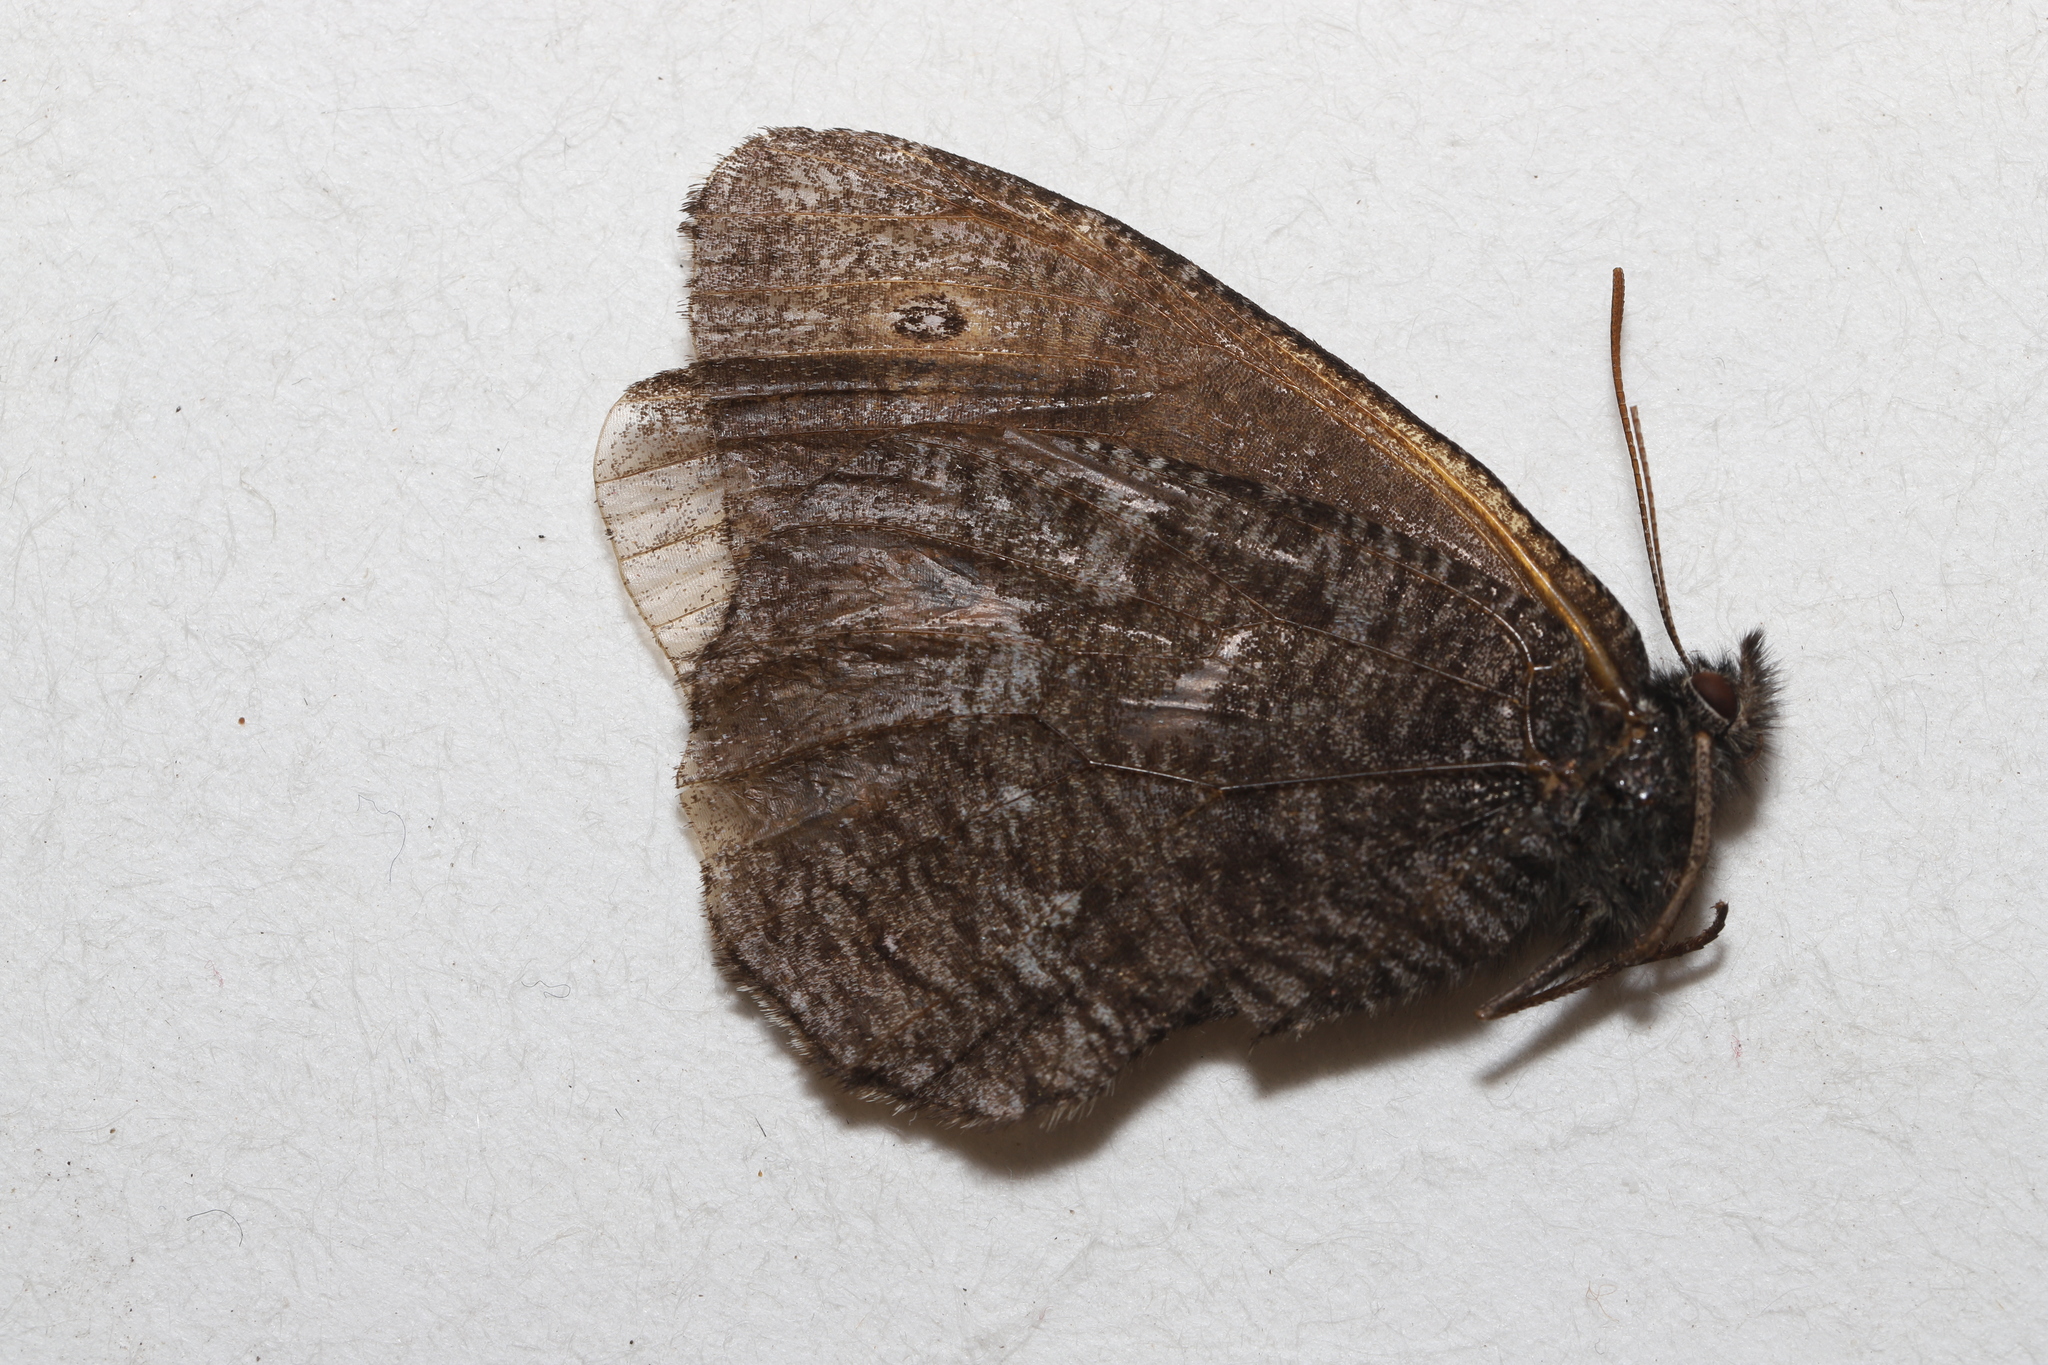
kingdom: Animalia
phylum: Arthropoda
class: Insecta
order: Lepidoptera
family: Nymphalidae
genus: Oeneis
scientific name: Oeneis jutta
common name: Baltic grayling
